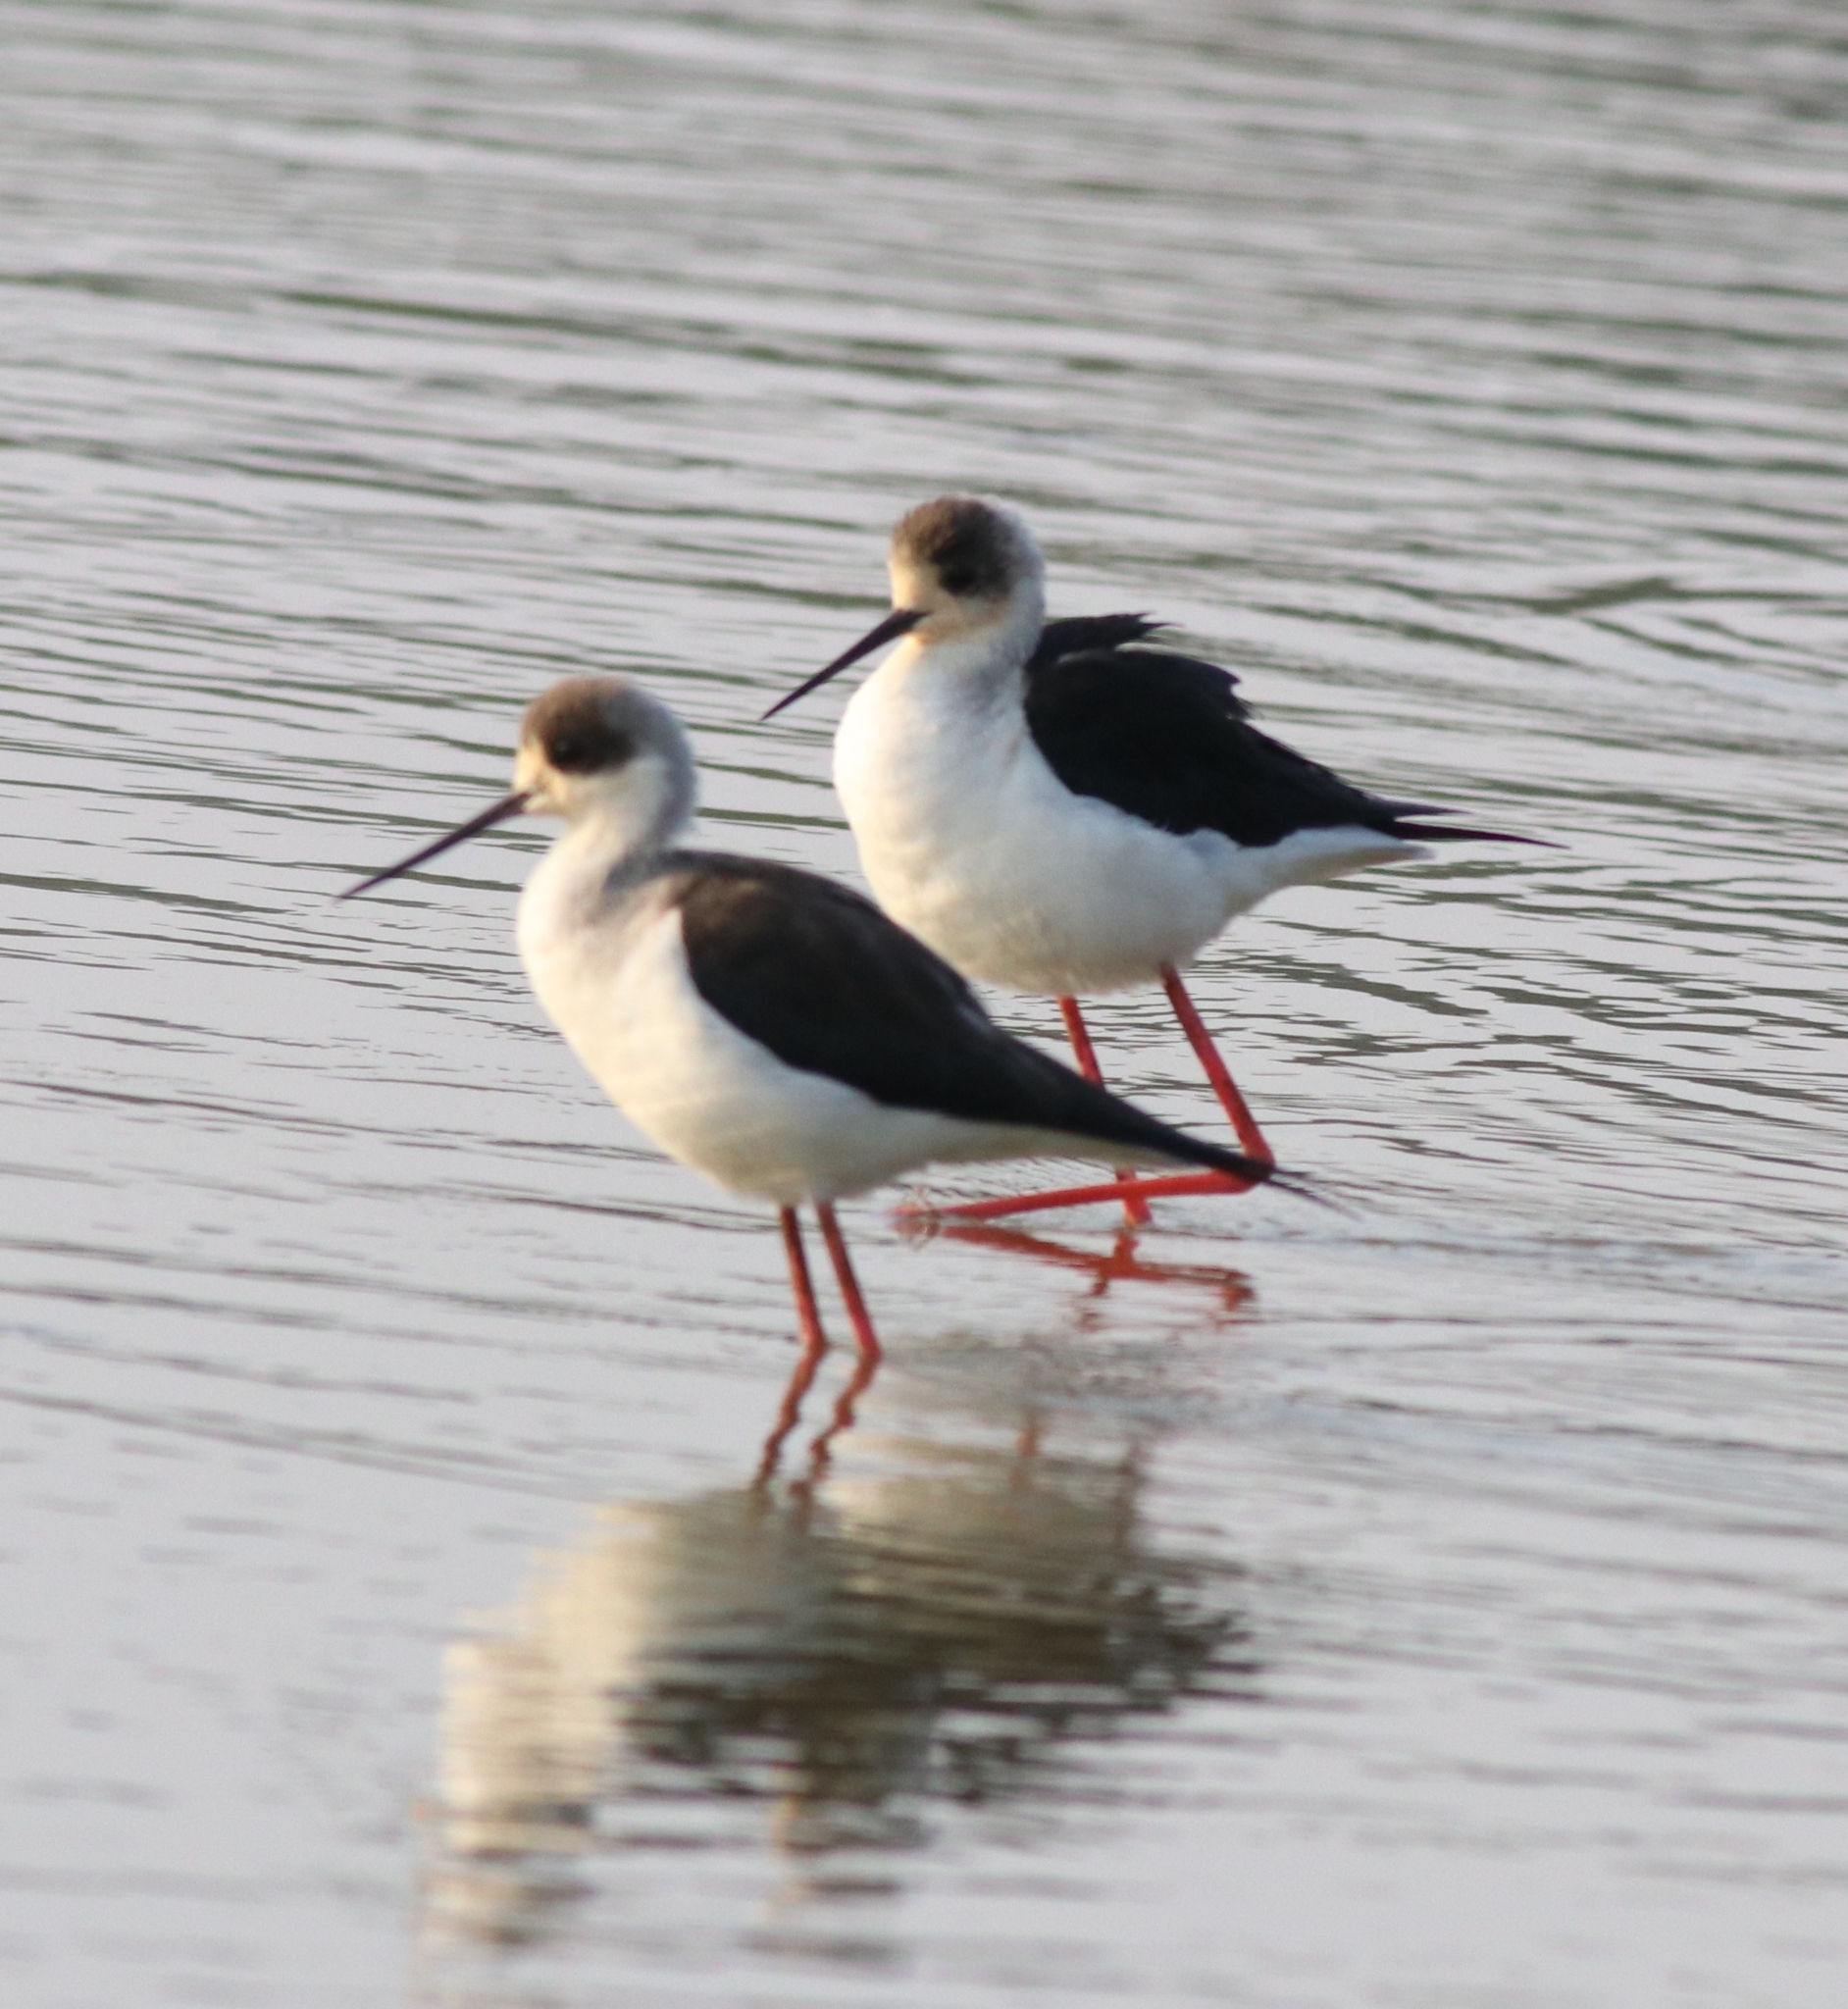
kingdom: Animalia
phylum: Chordata
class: Aves
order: Charadriiformes
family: Recurvirostridae
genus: Himantopus
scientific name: Himantopus himantopus
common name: Black-winged stilt
